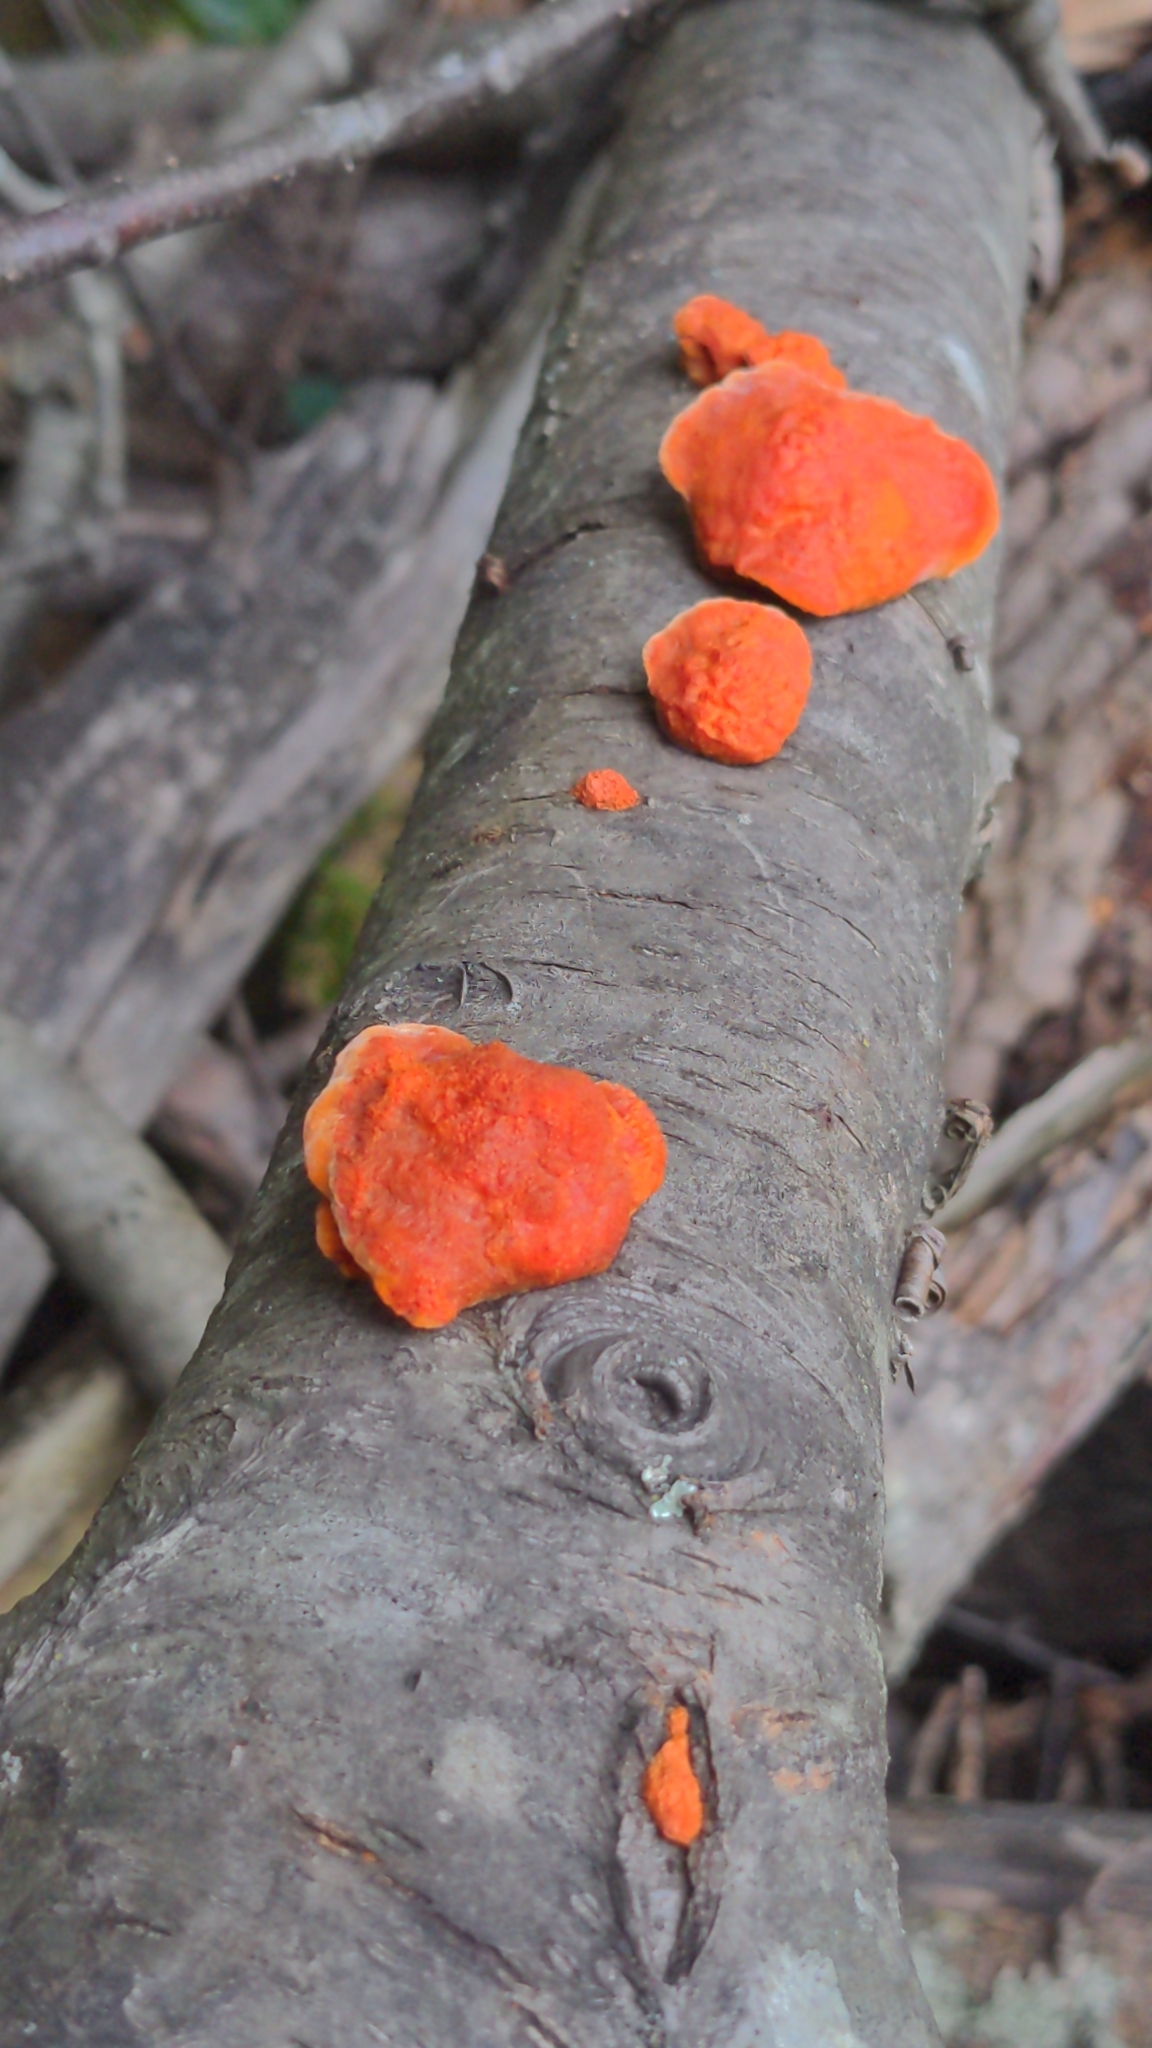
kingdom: Fungi
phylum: Basidiomycota
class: Agaricomycetes
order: Polyporales
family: Polyporaceae
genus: Trametes
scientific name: Trametes cinnabarina
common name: Northern cinnabar polypore
